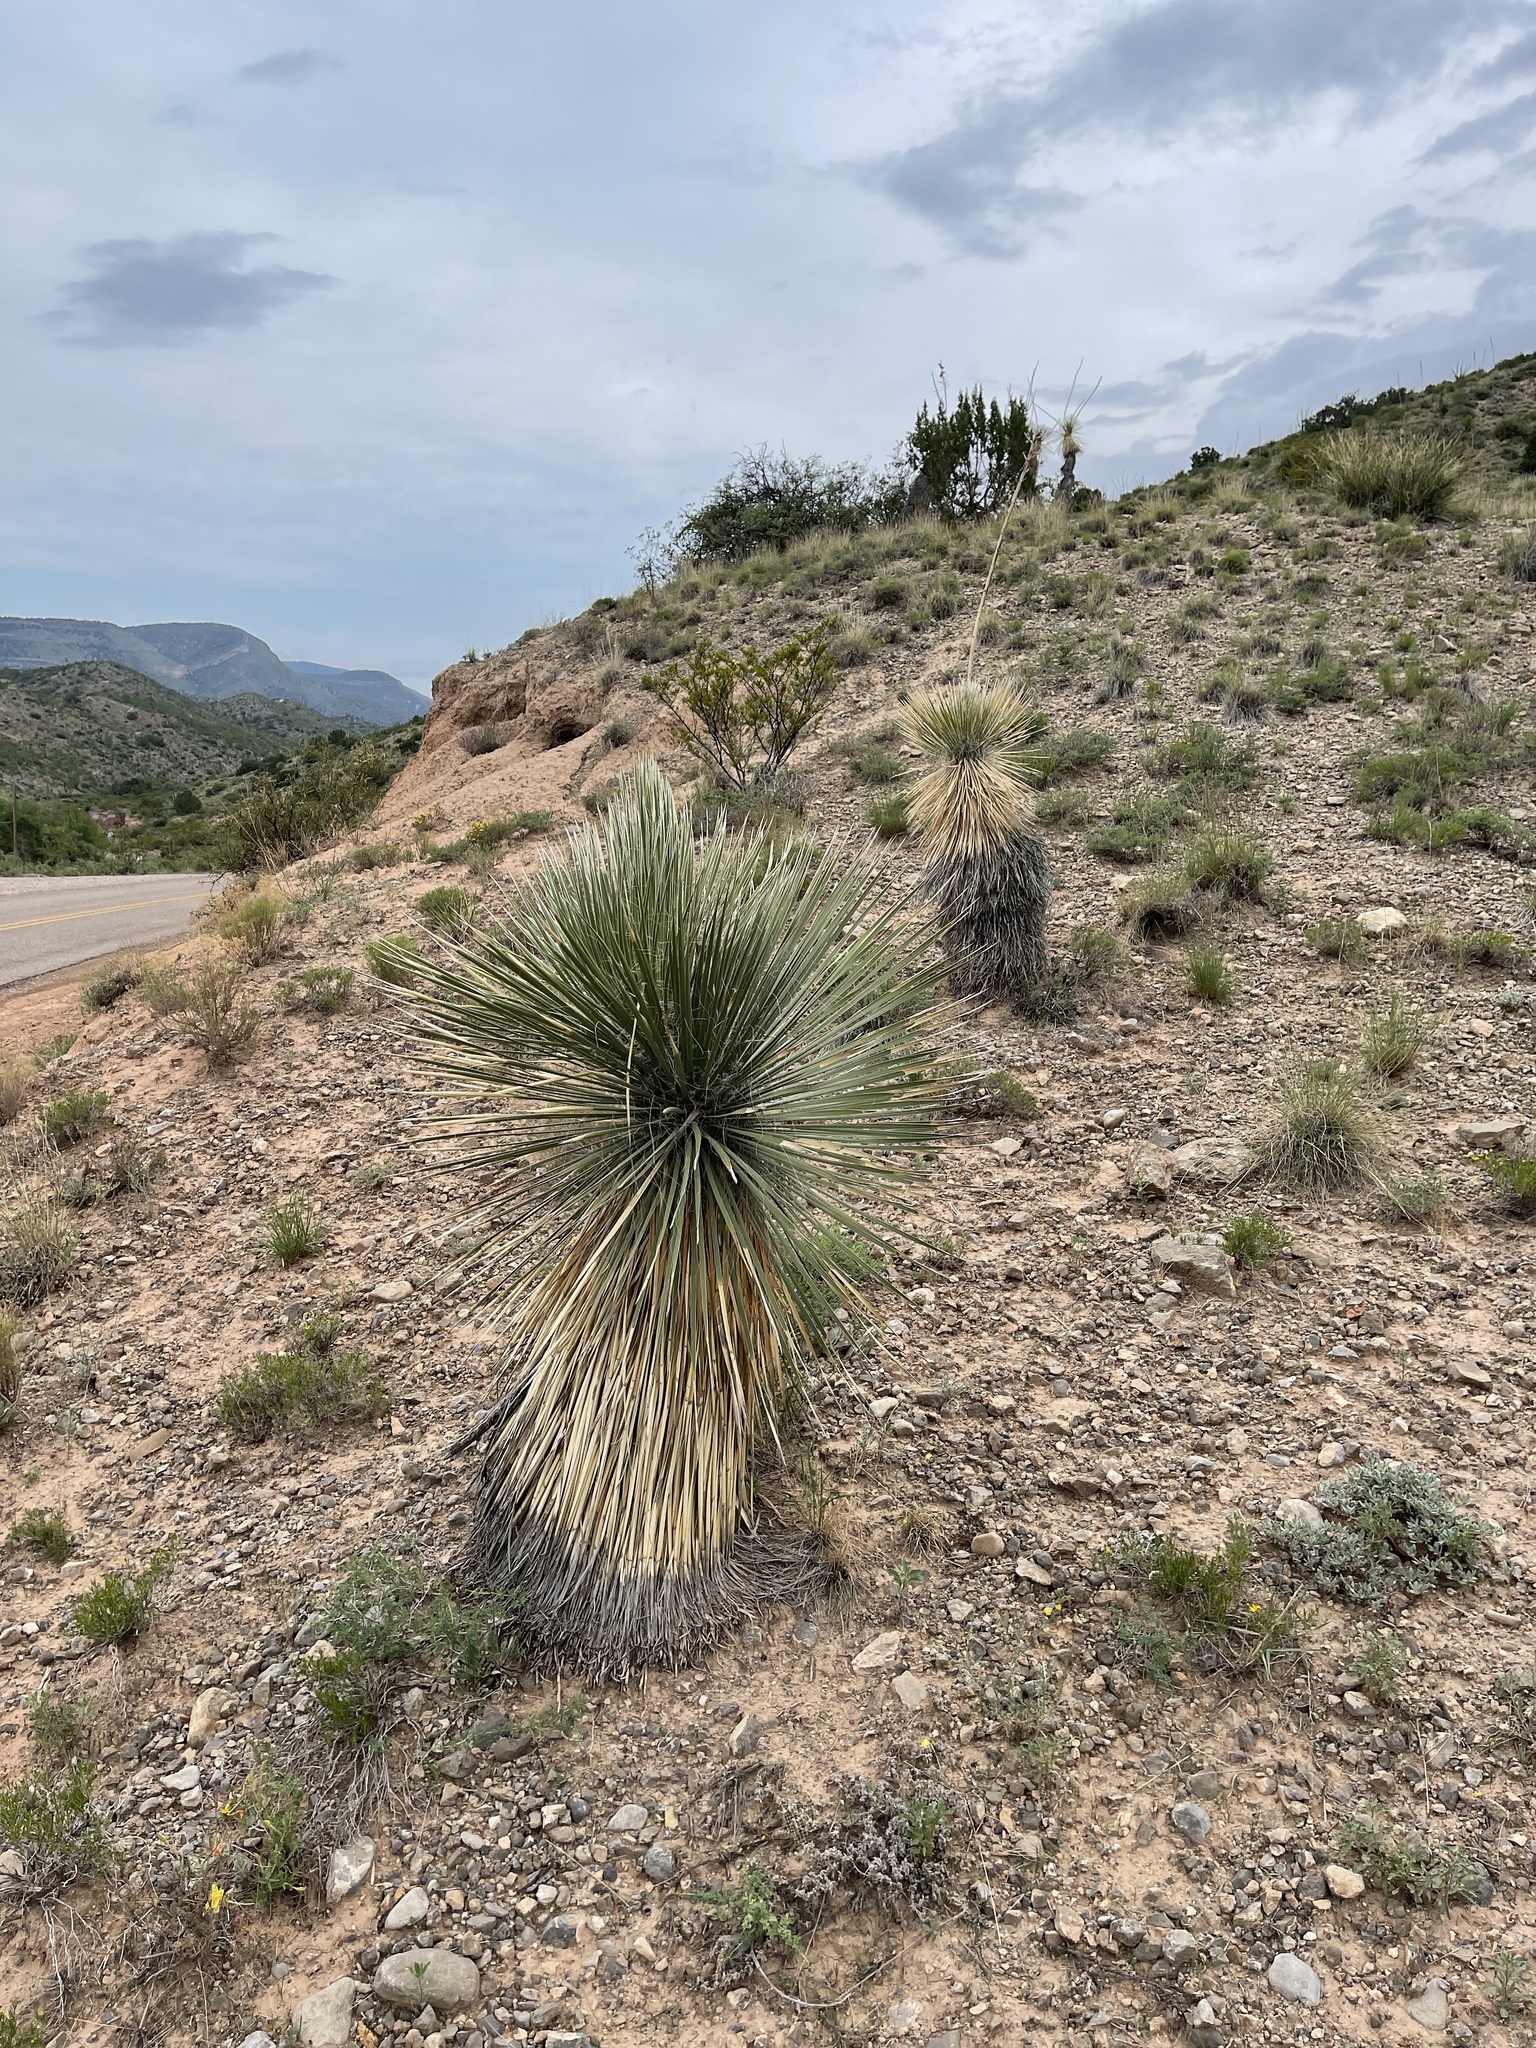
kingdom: Plantae
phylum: Tracheophyta
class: Liliopsida
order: Asparagales
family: Asparagaceae
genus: Yucca
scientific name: Yucca elata
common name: Palmella
